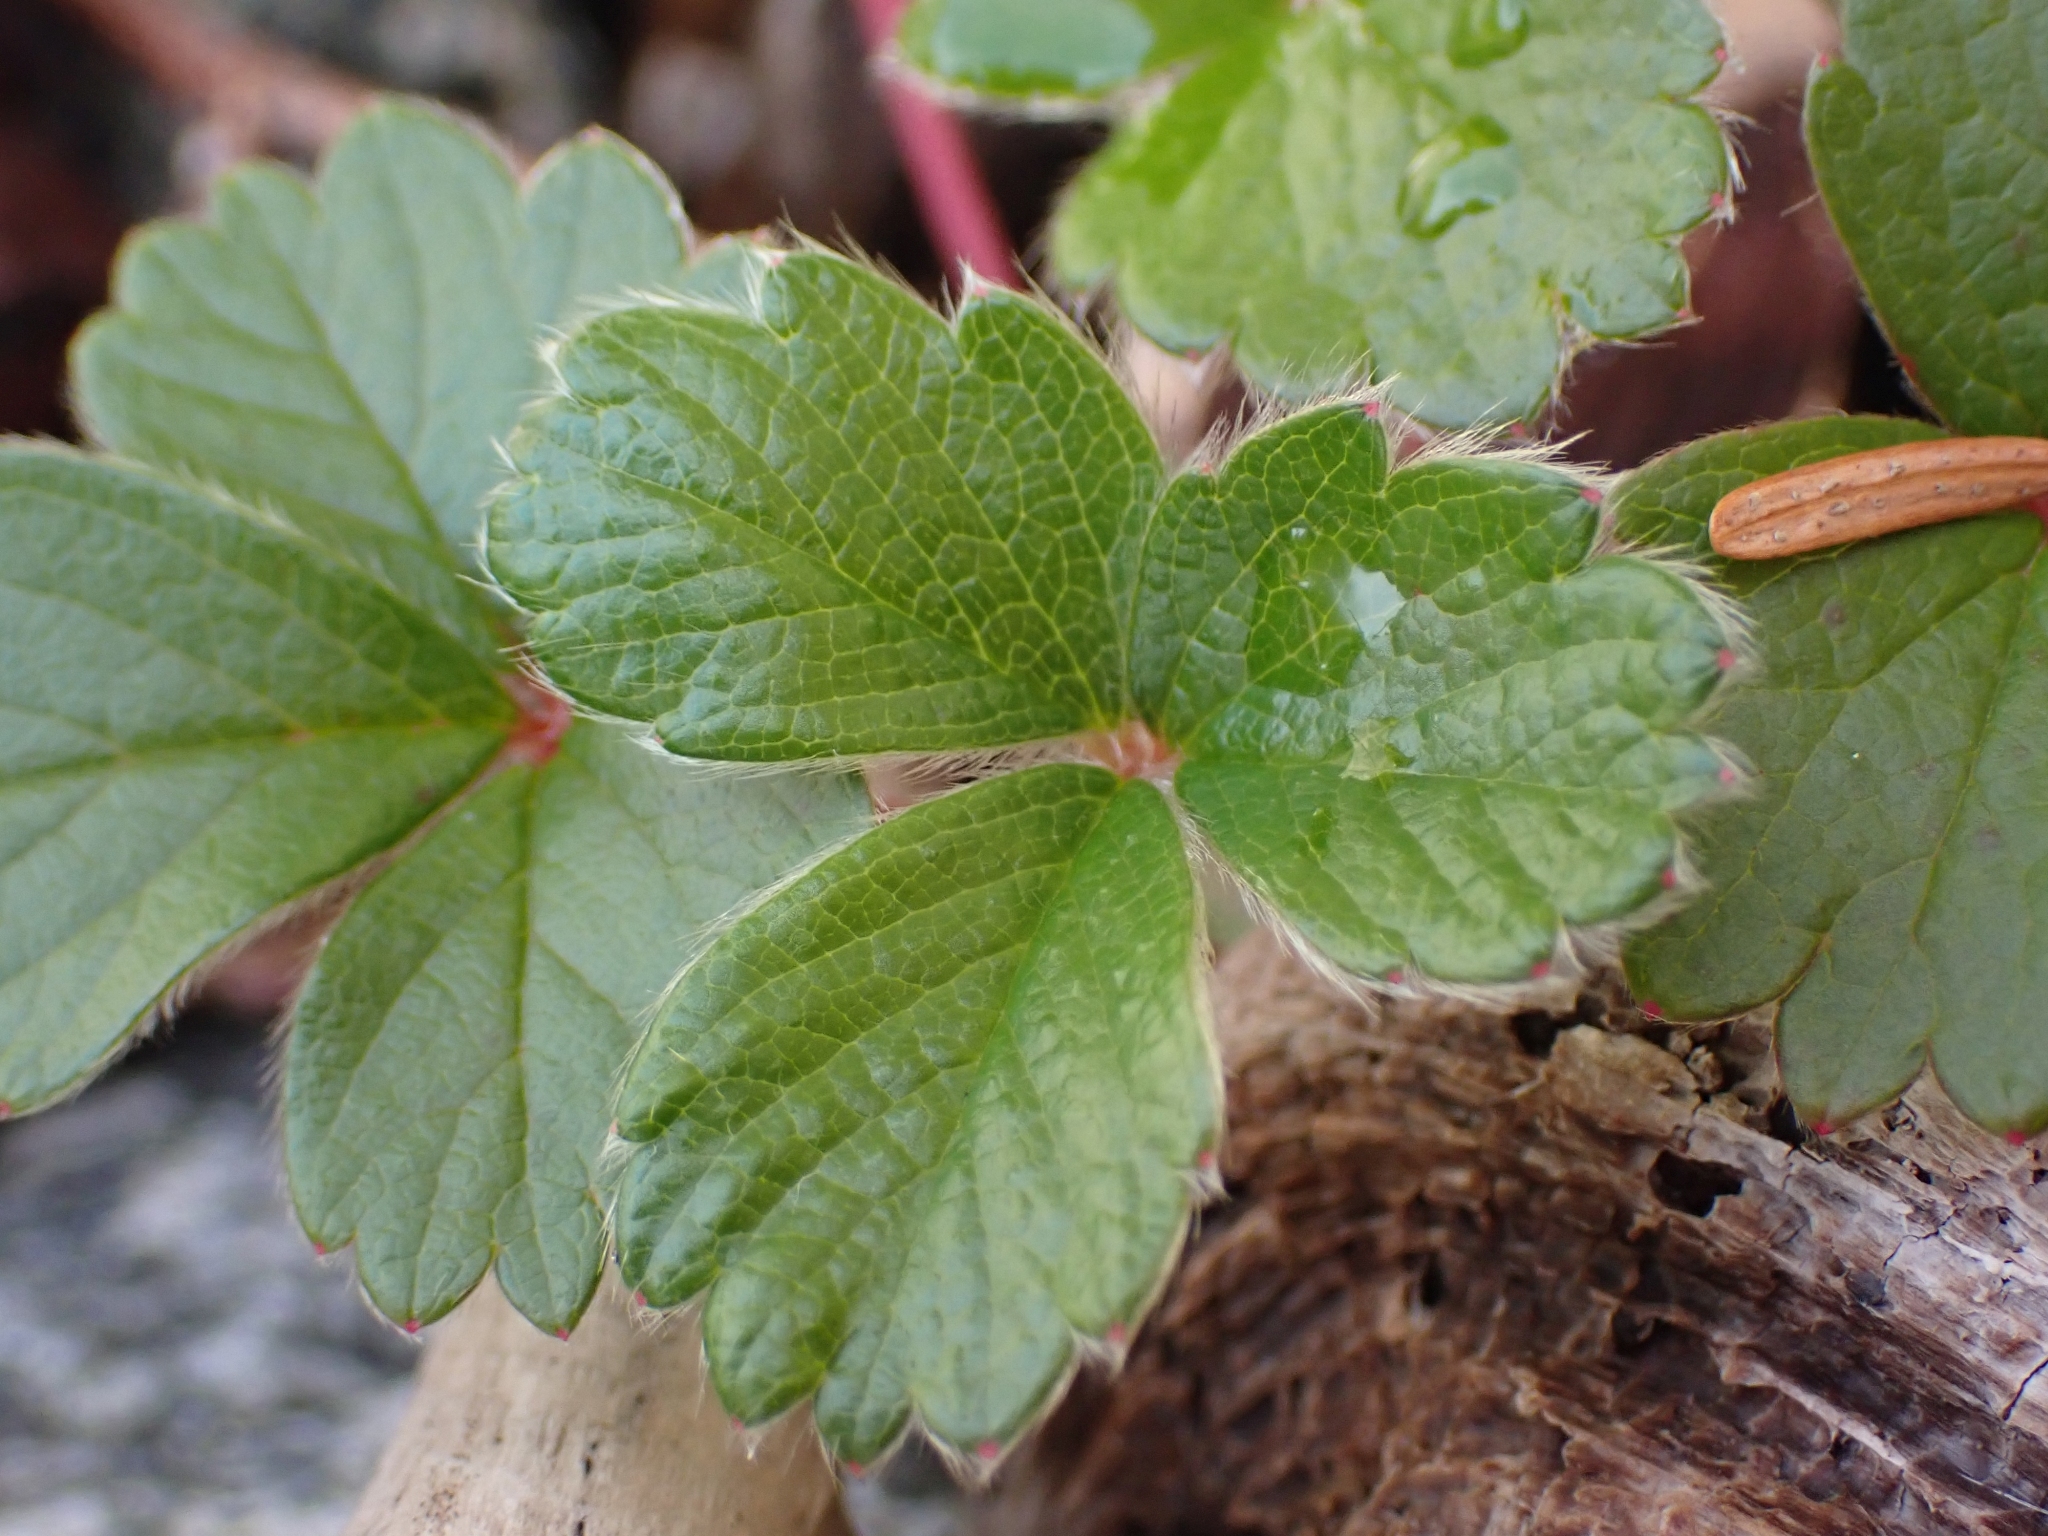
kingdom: Plantae
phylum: Tracheophyta
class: Magnoliopsida
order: Rosales
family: Rosaceae
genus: Fragaria
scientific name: Fragaria chiloensis
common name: Beach strawberry
